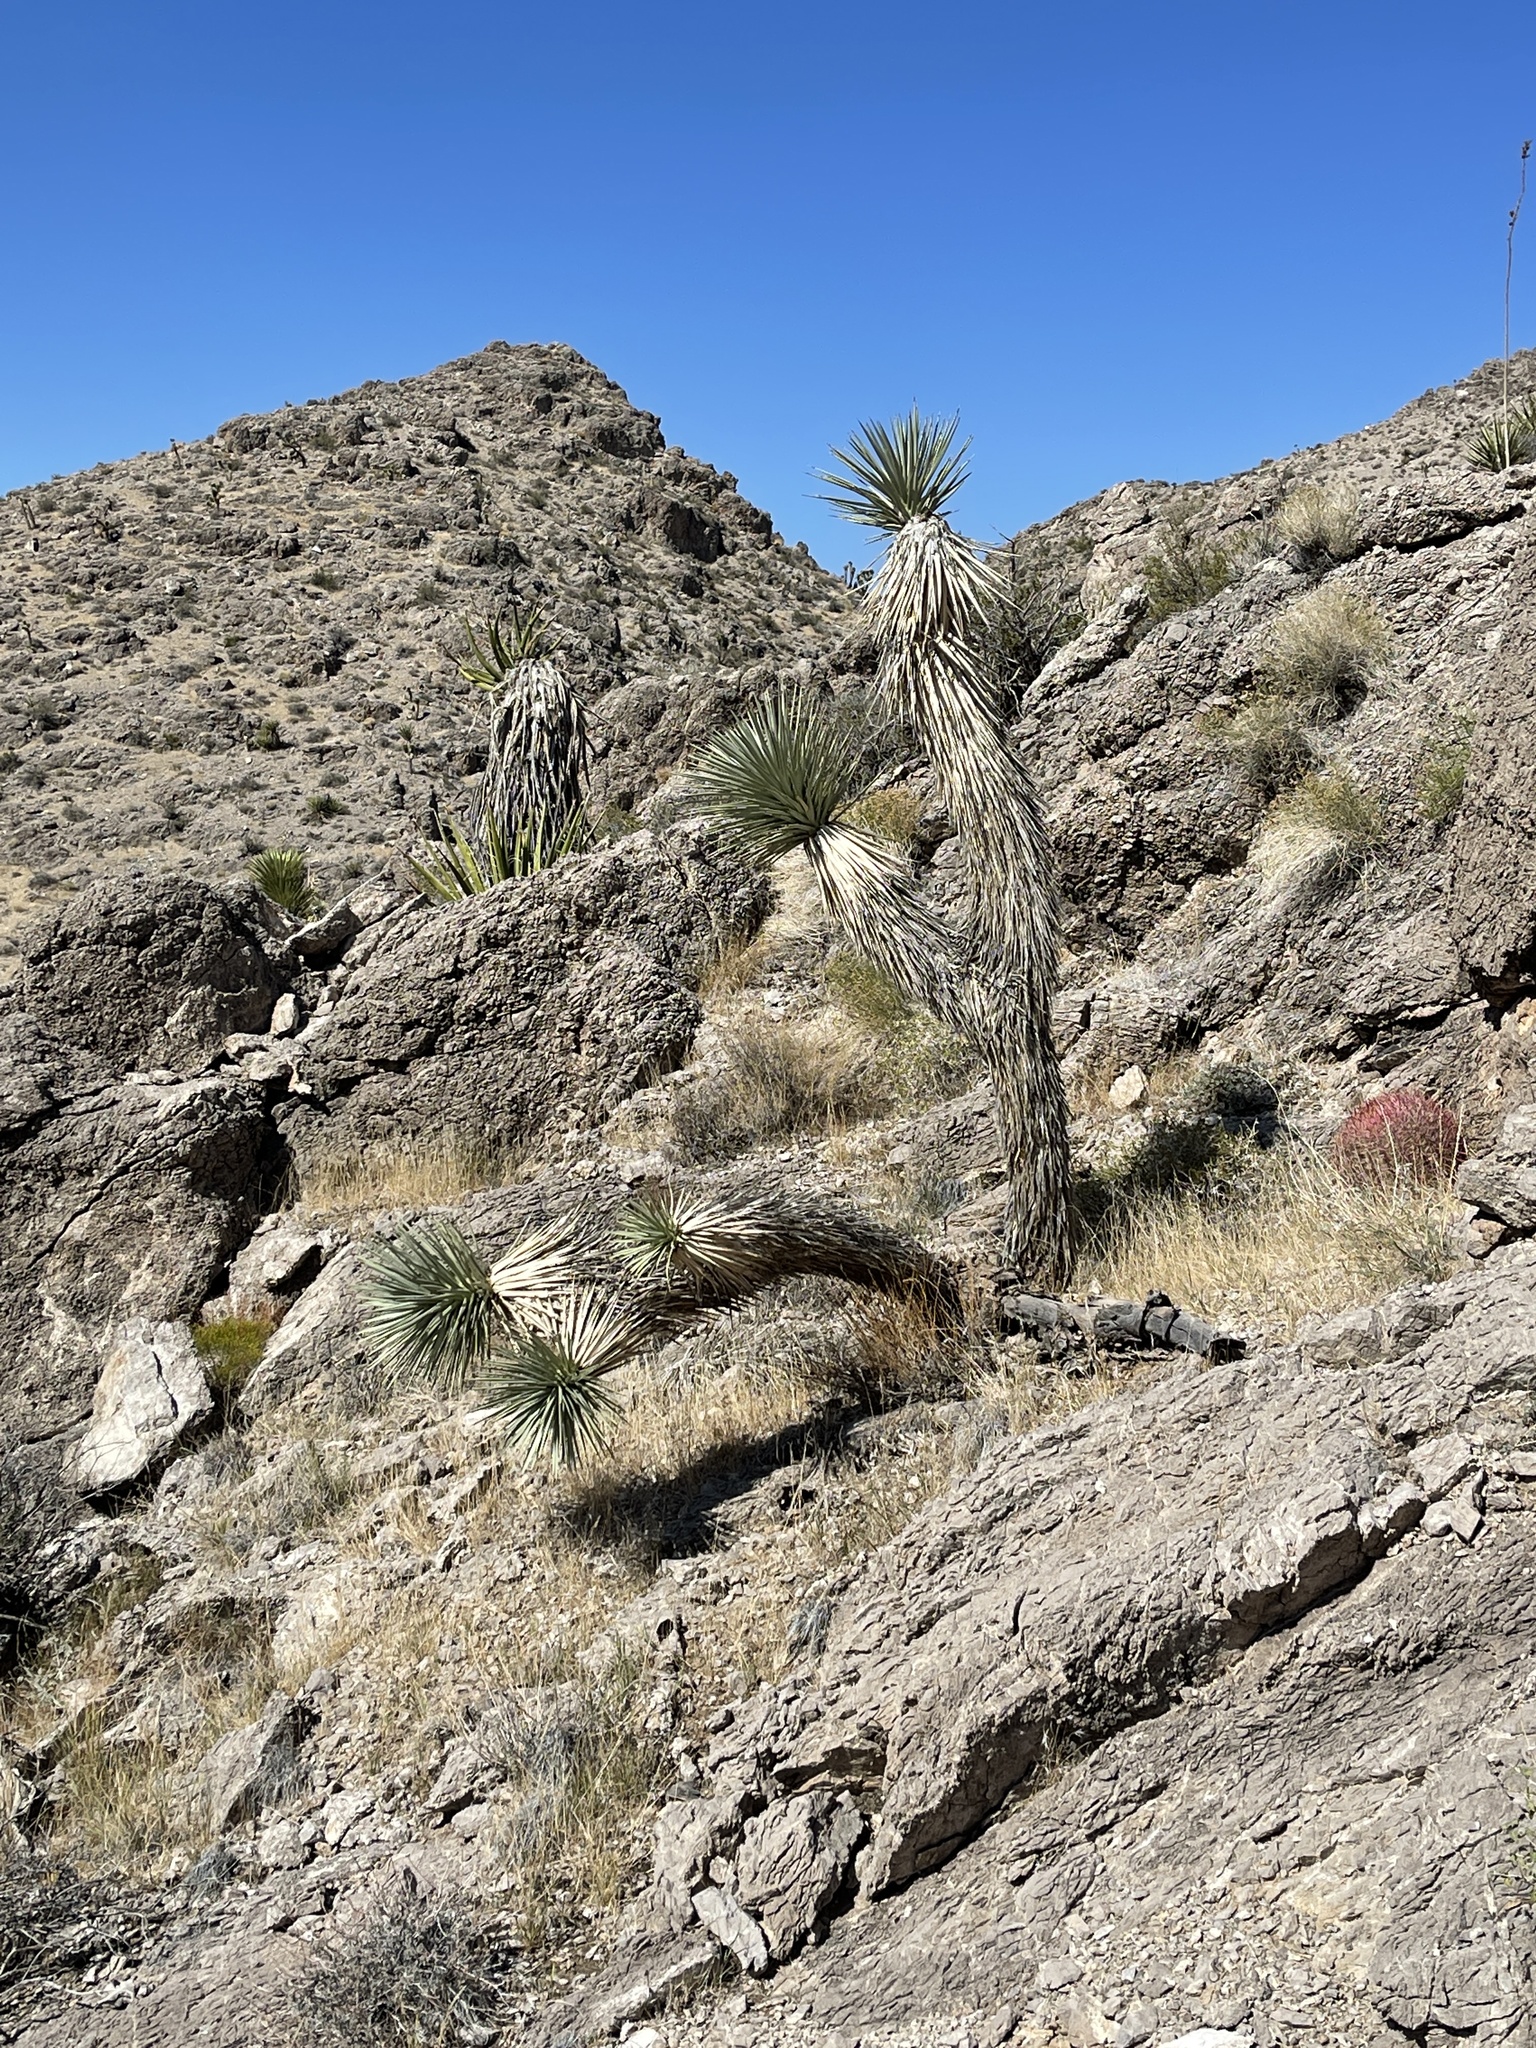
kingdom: Plantae
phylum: Tracheophyta
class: Liliopsida
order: Asparagales
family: Asparagaceae
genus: Yucca
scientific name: Yucca brevifolia
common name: Joshua tree
